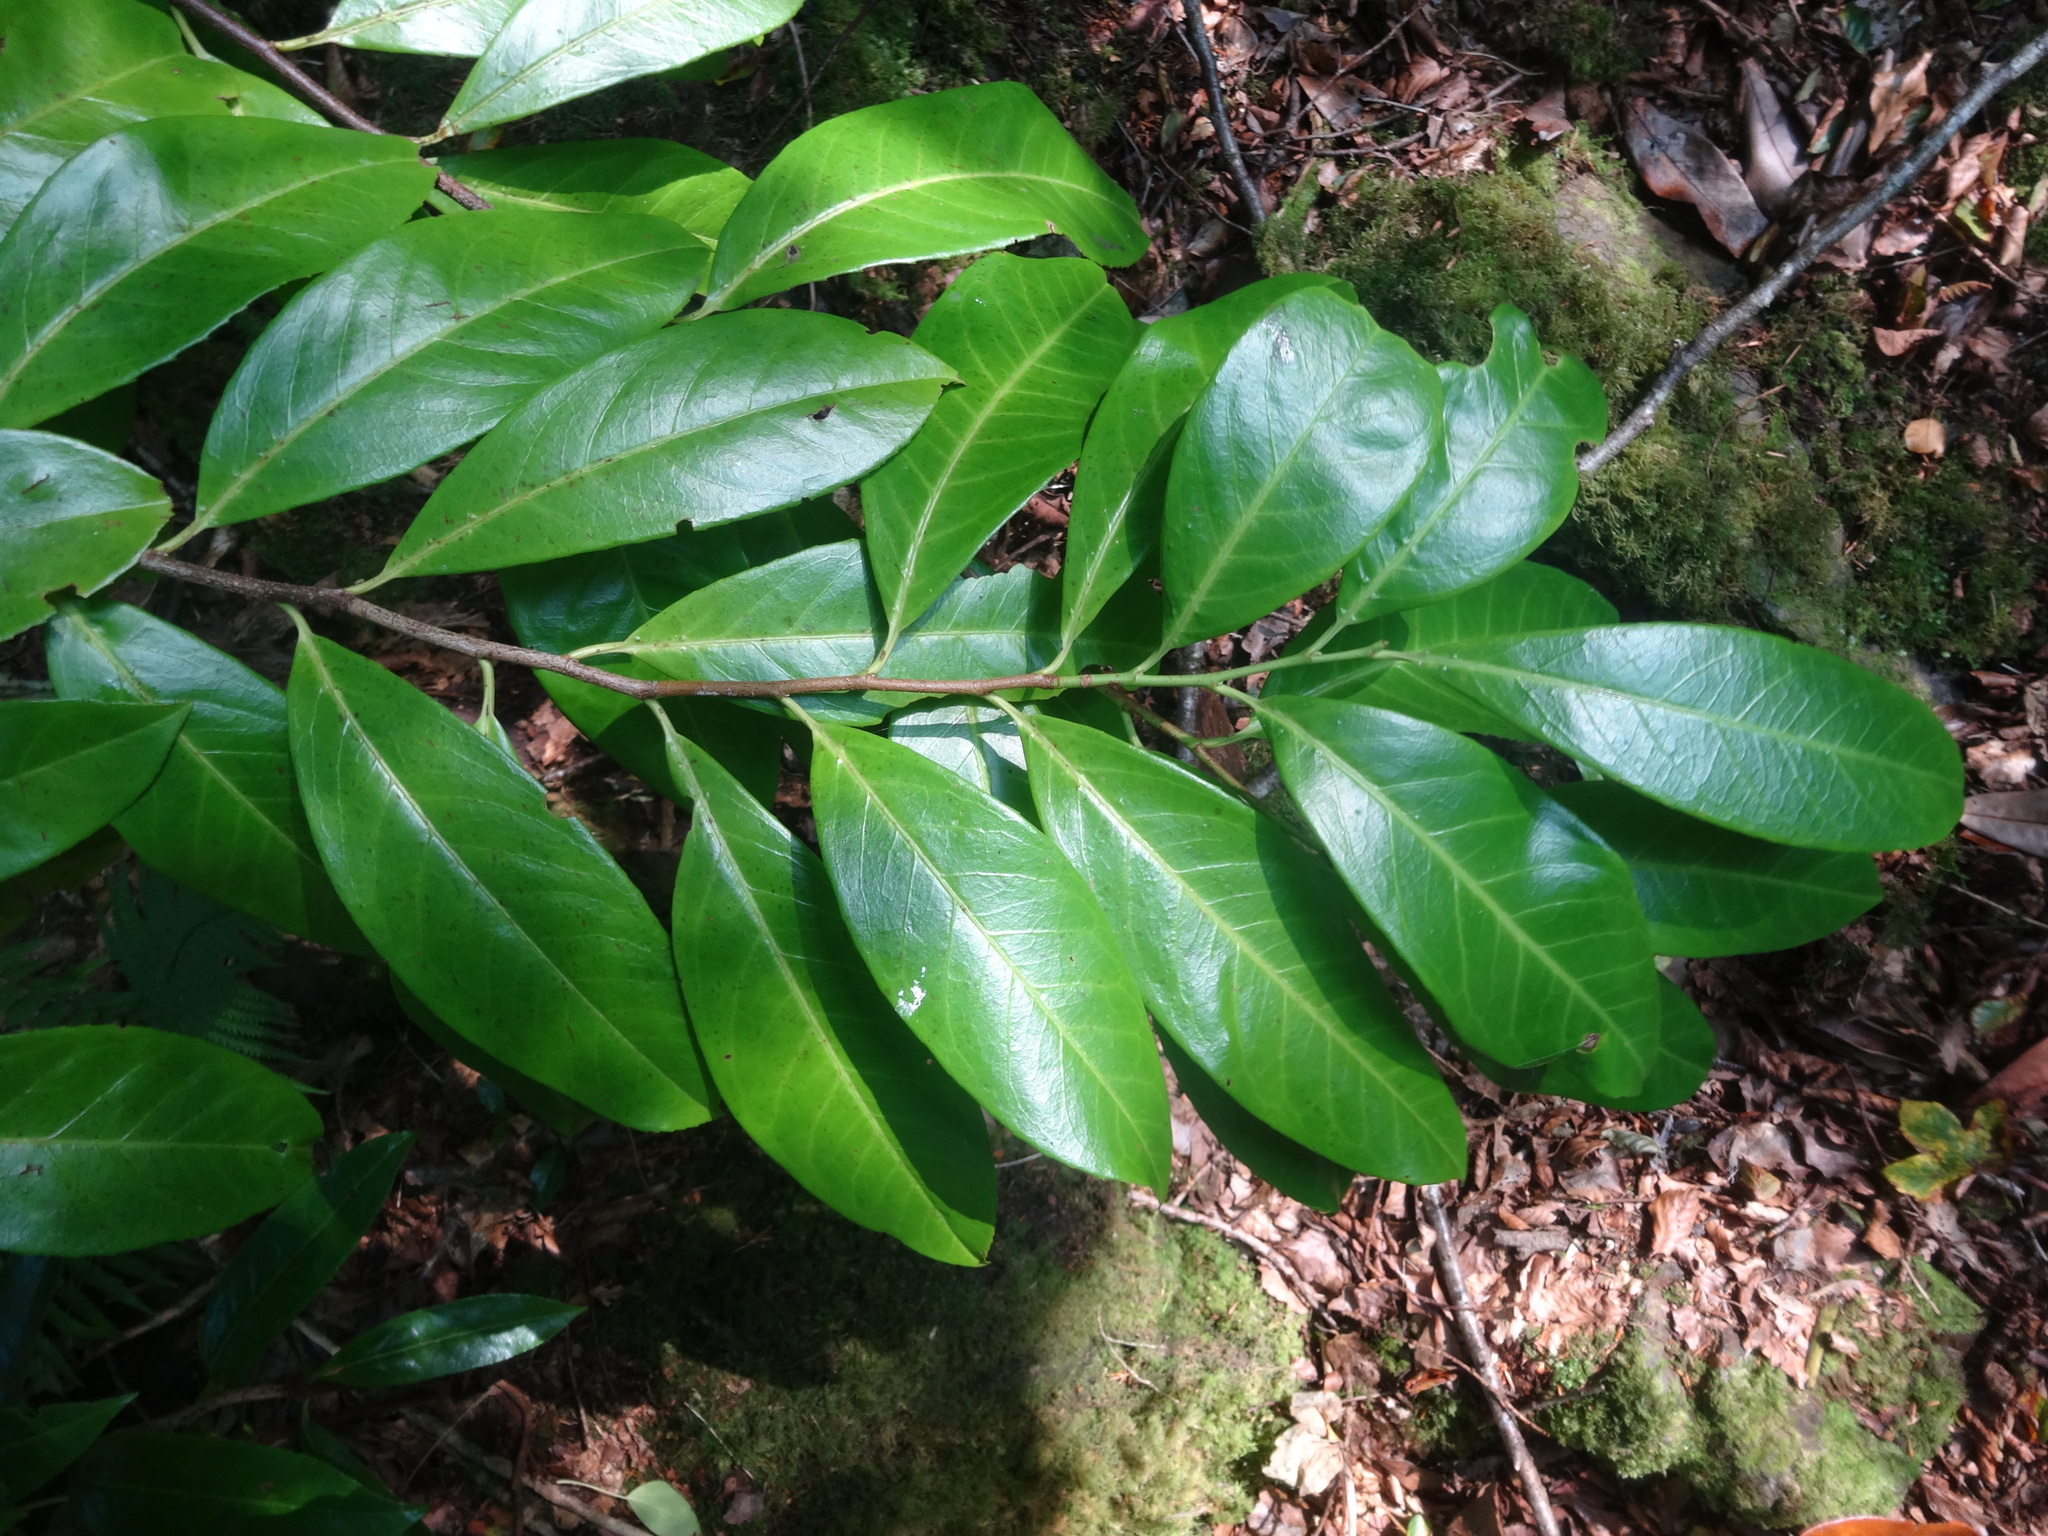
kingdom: Plantae
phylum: Tracheophyta
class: Magnoliopsida
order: Rosales
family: Rosaceae
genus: Prunus
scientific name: Prunus laurocerasus
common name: Cherry laurel
